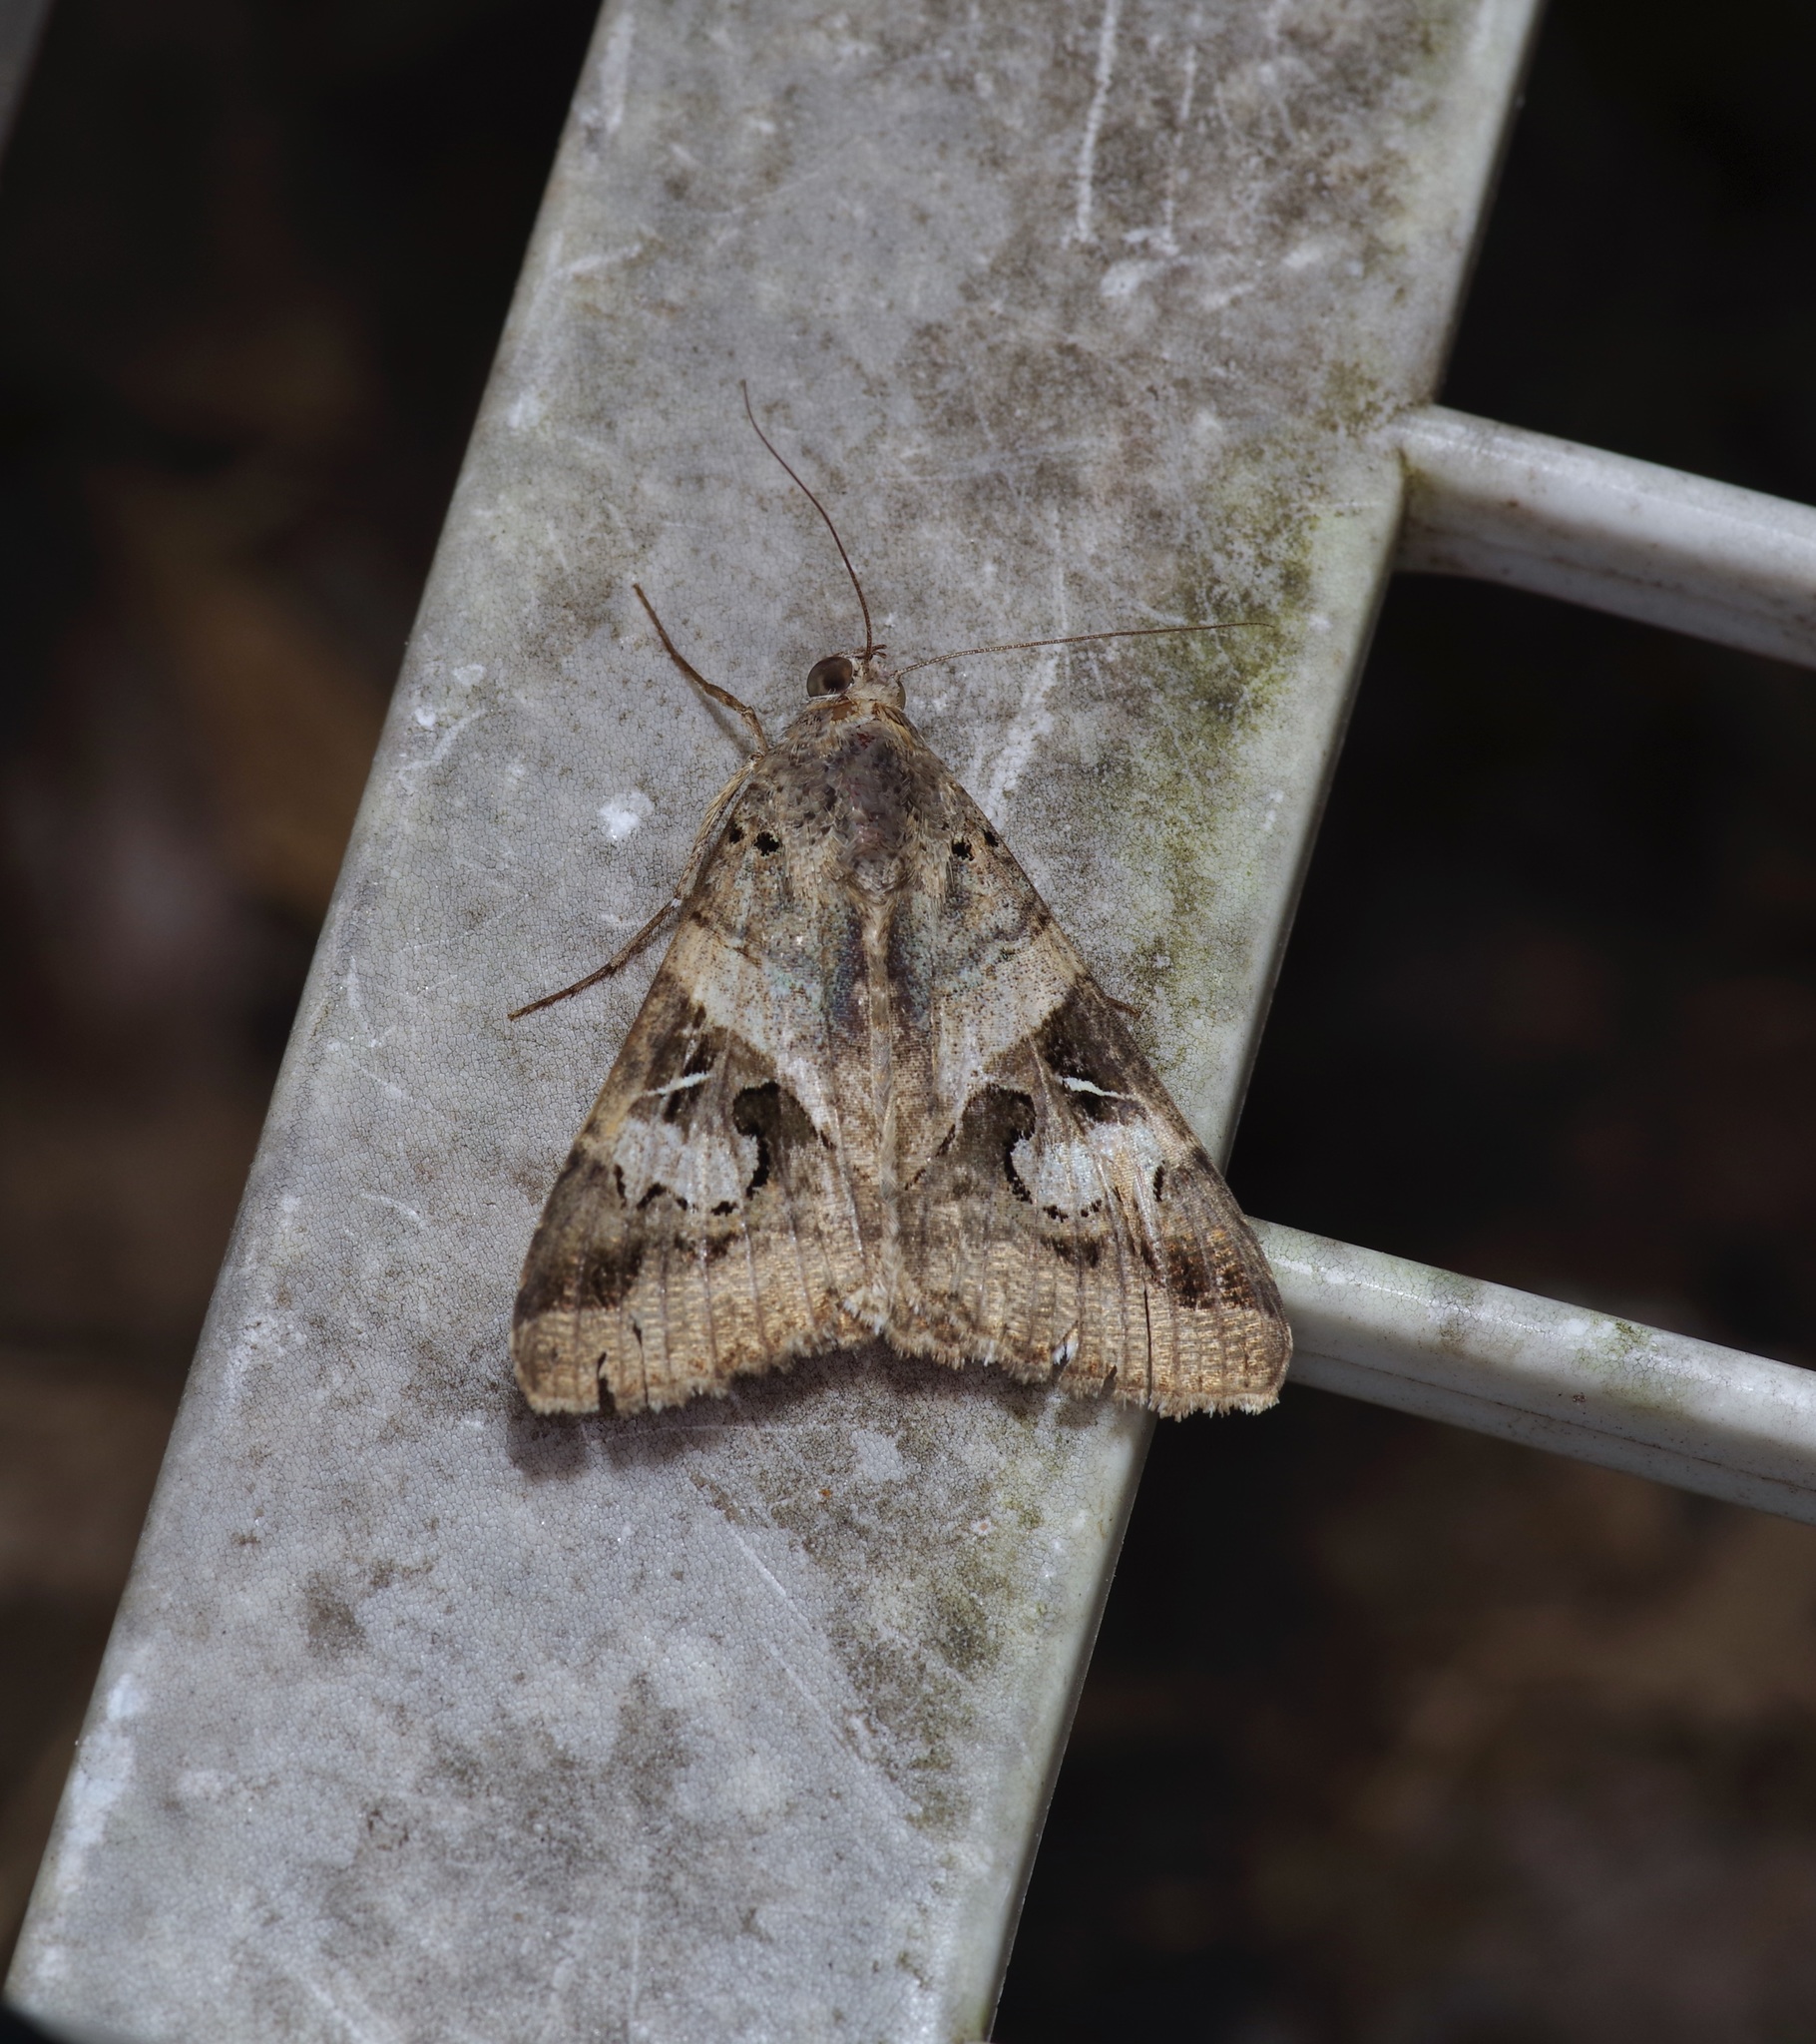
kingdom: Animalia
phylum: Arthropoda
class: Insecta
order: Lepidoptera
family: Erebidae
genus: Melipotis
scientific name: Melipotis indomita
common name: Moth
